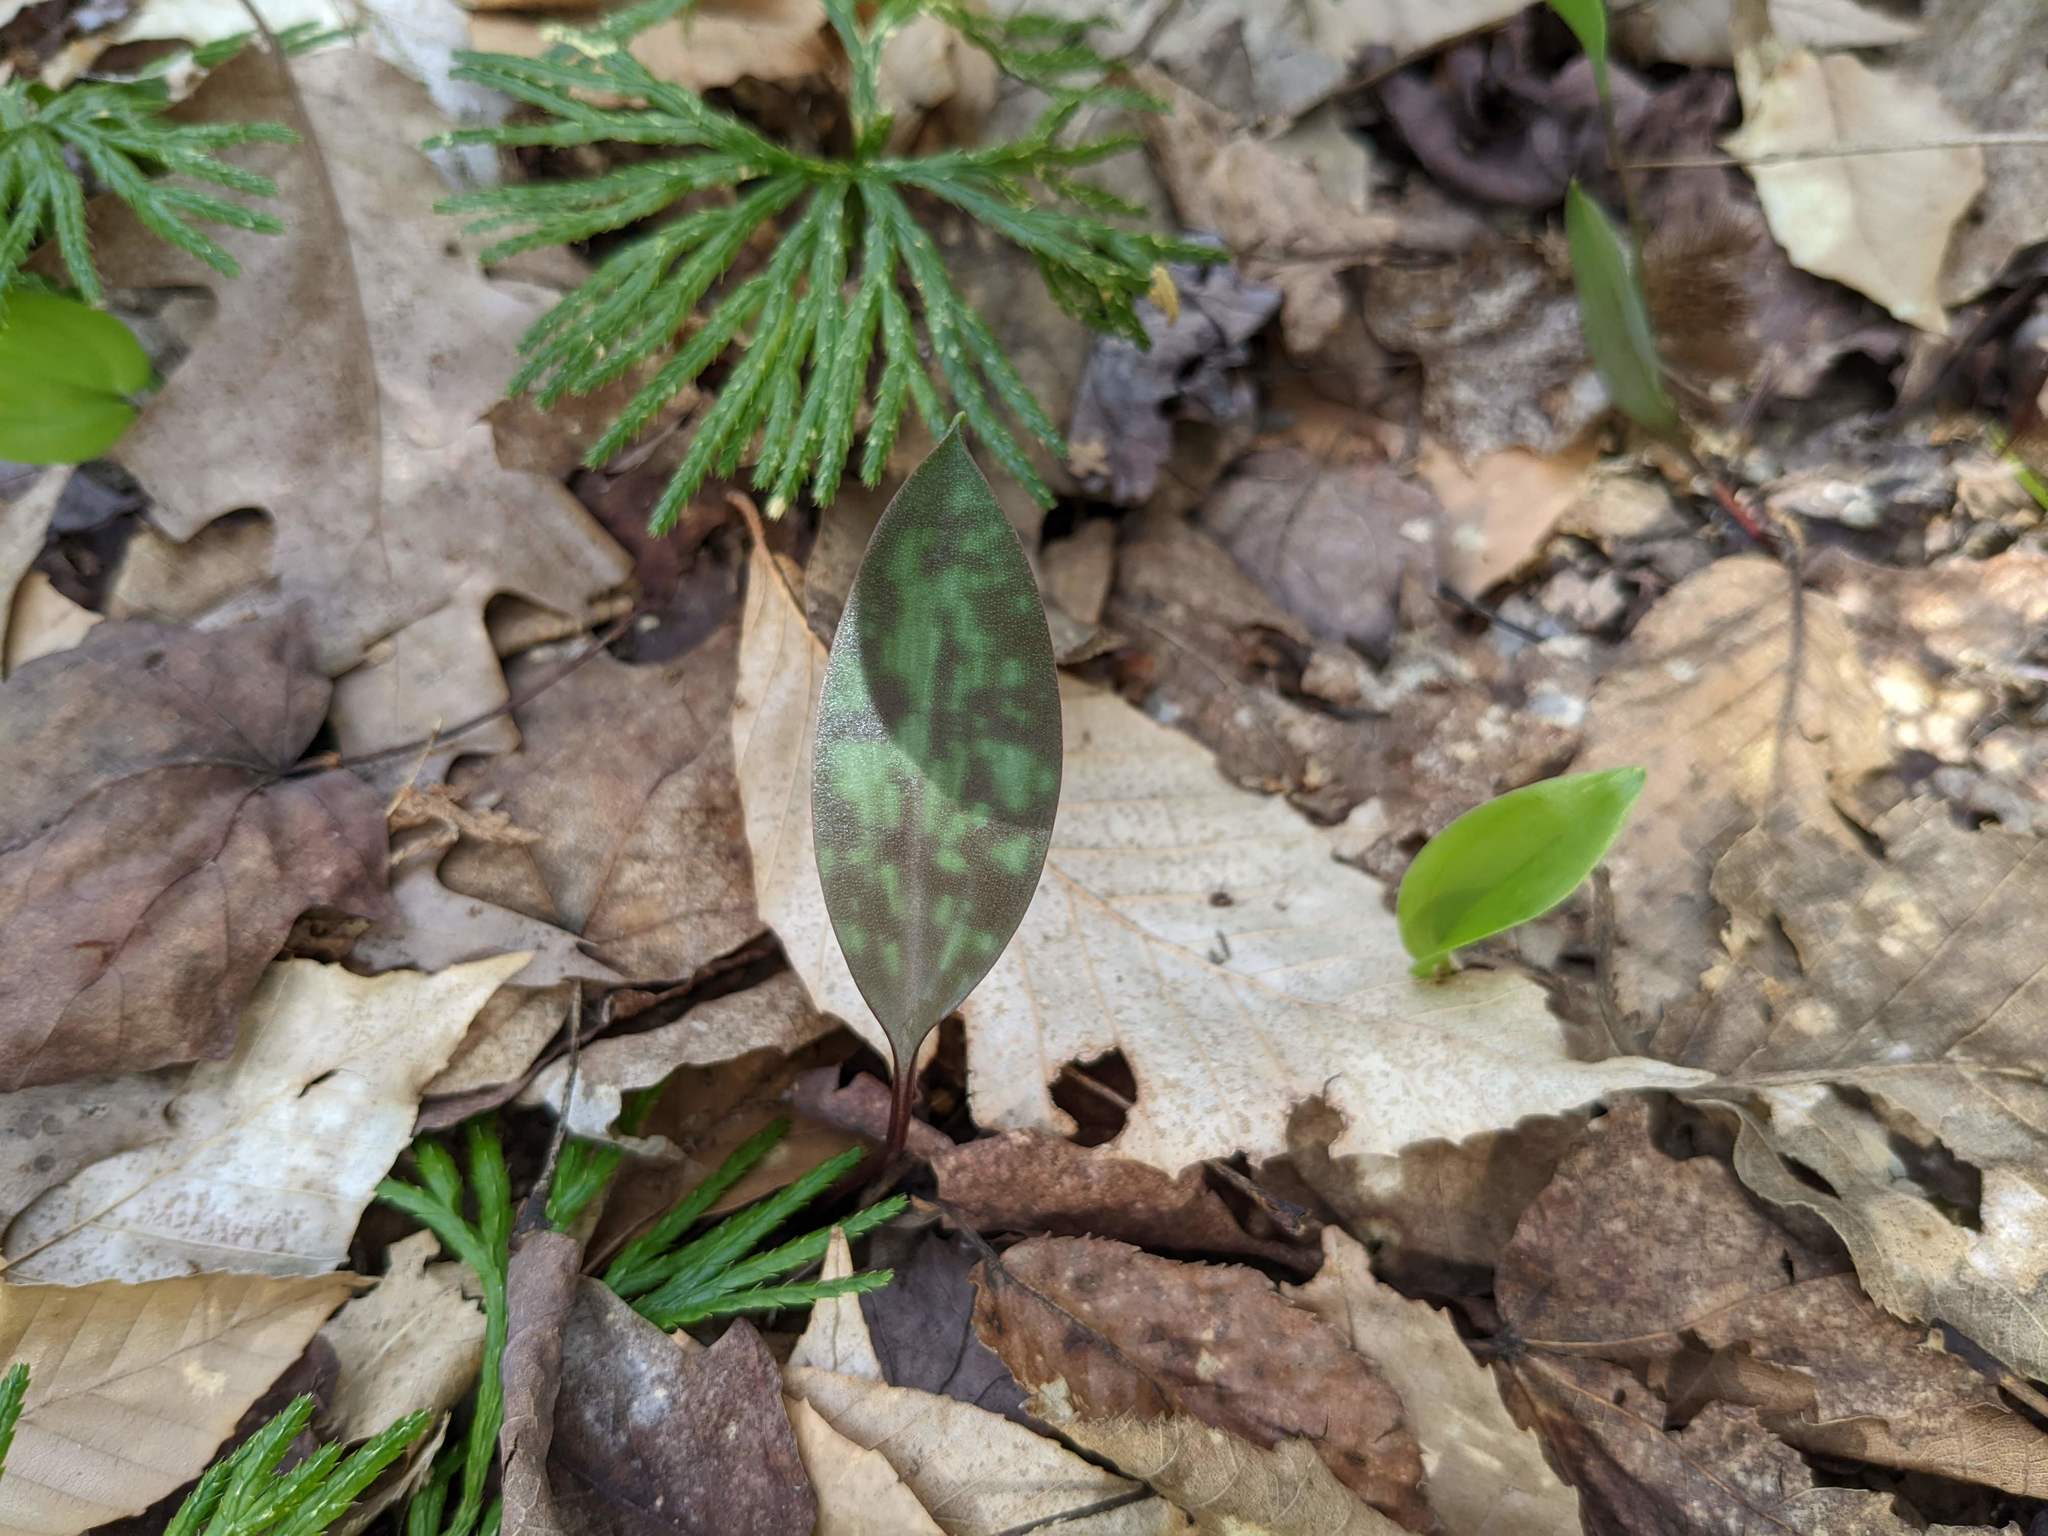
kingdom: Plantae
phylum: Tracheophyta
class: Liliopsida
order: Liliales
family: Liliaceae
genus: Erythronium
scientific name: Erythronium americanum
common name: Yellow adder's-tongue
